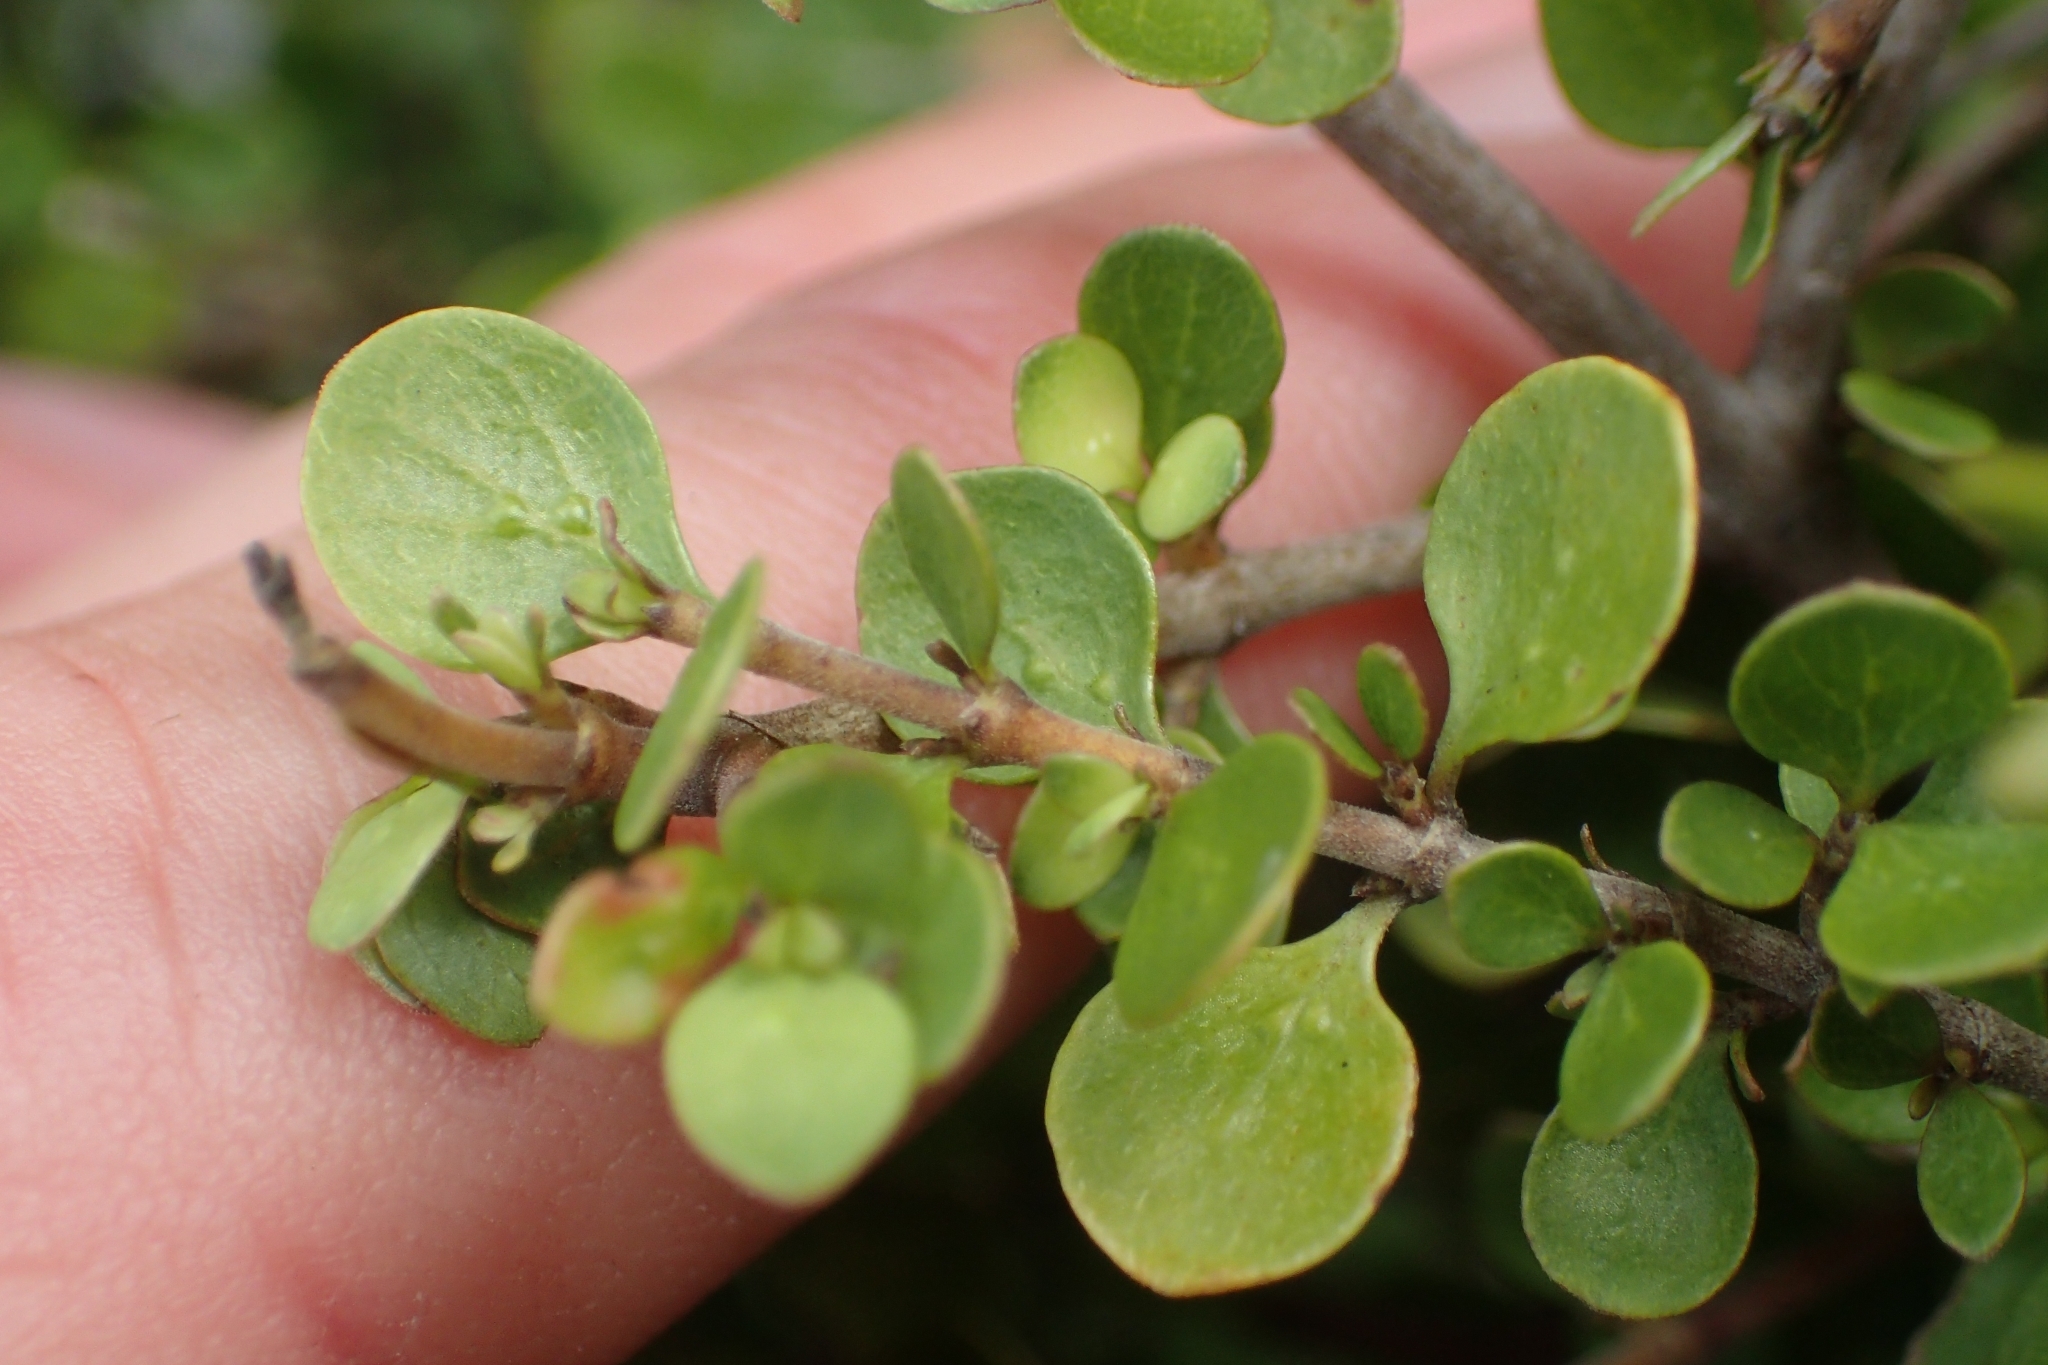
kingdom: Plantae
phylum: Tracheophyta
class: Magnoliopsida
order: Gentianales
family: Rubiaceae
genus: Coprosma
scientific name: Coprosma neglecta
